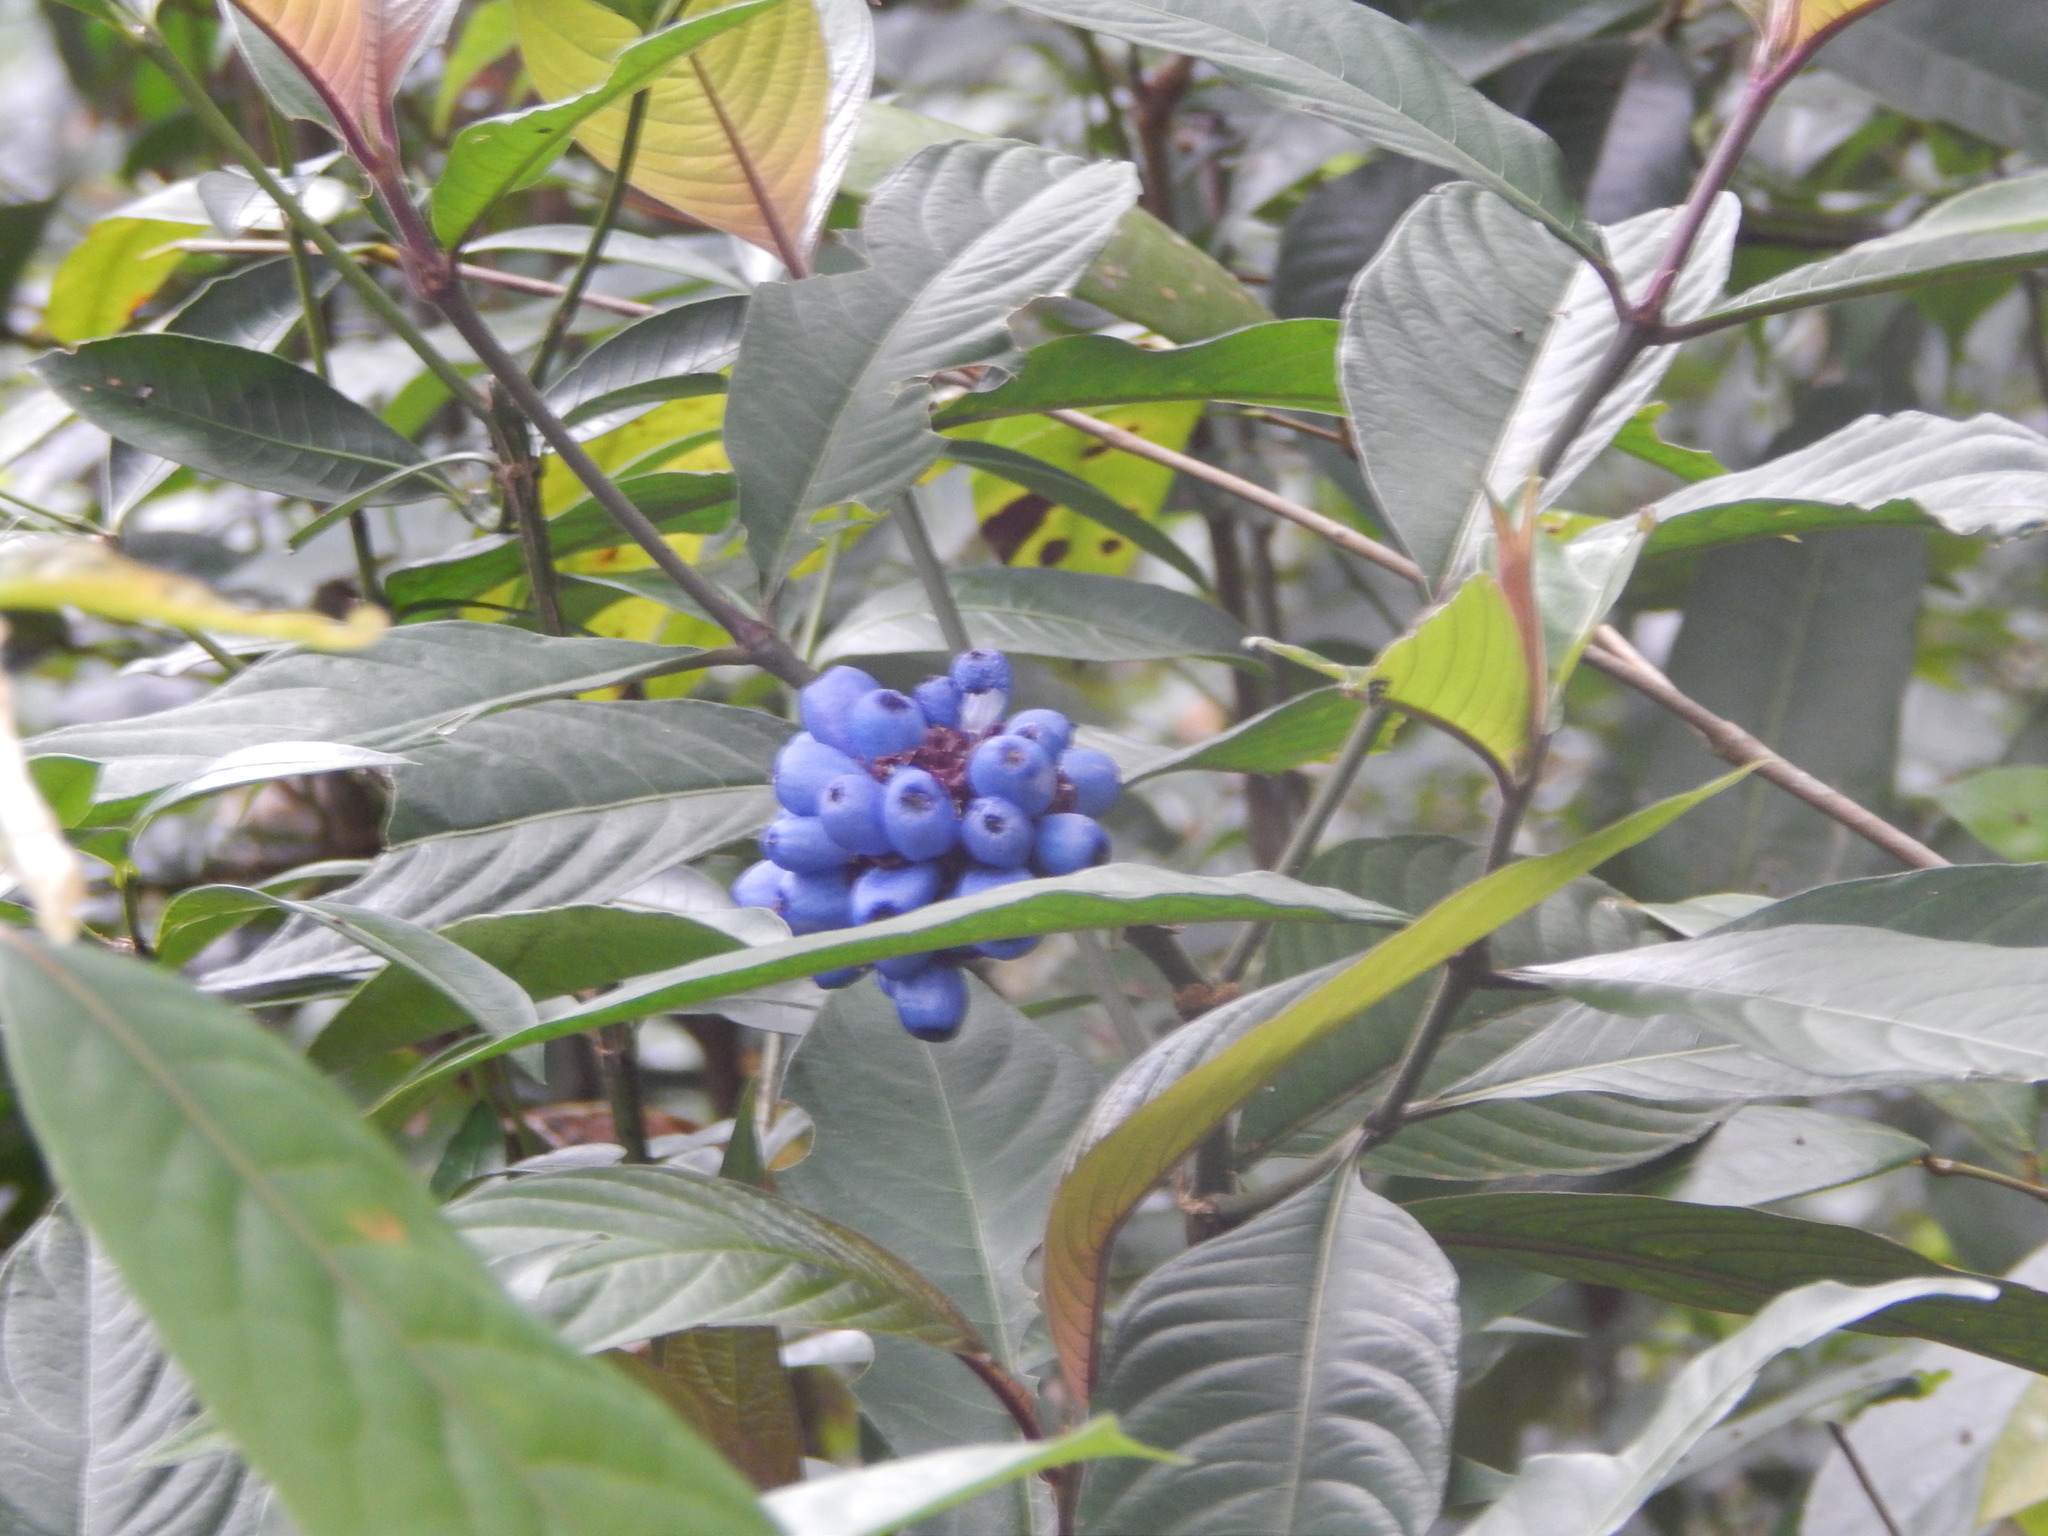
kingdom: Plantae
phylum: Tracheophyta
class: Magnoliopsida
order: Gentianales
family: Rubiaceae
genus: Palicourea
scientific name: Palicourea colorata
